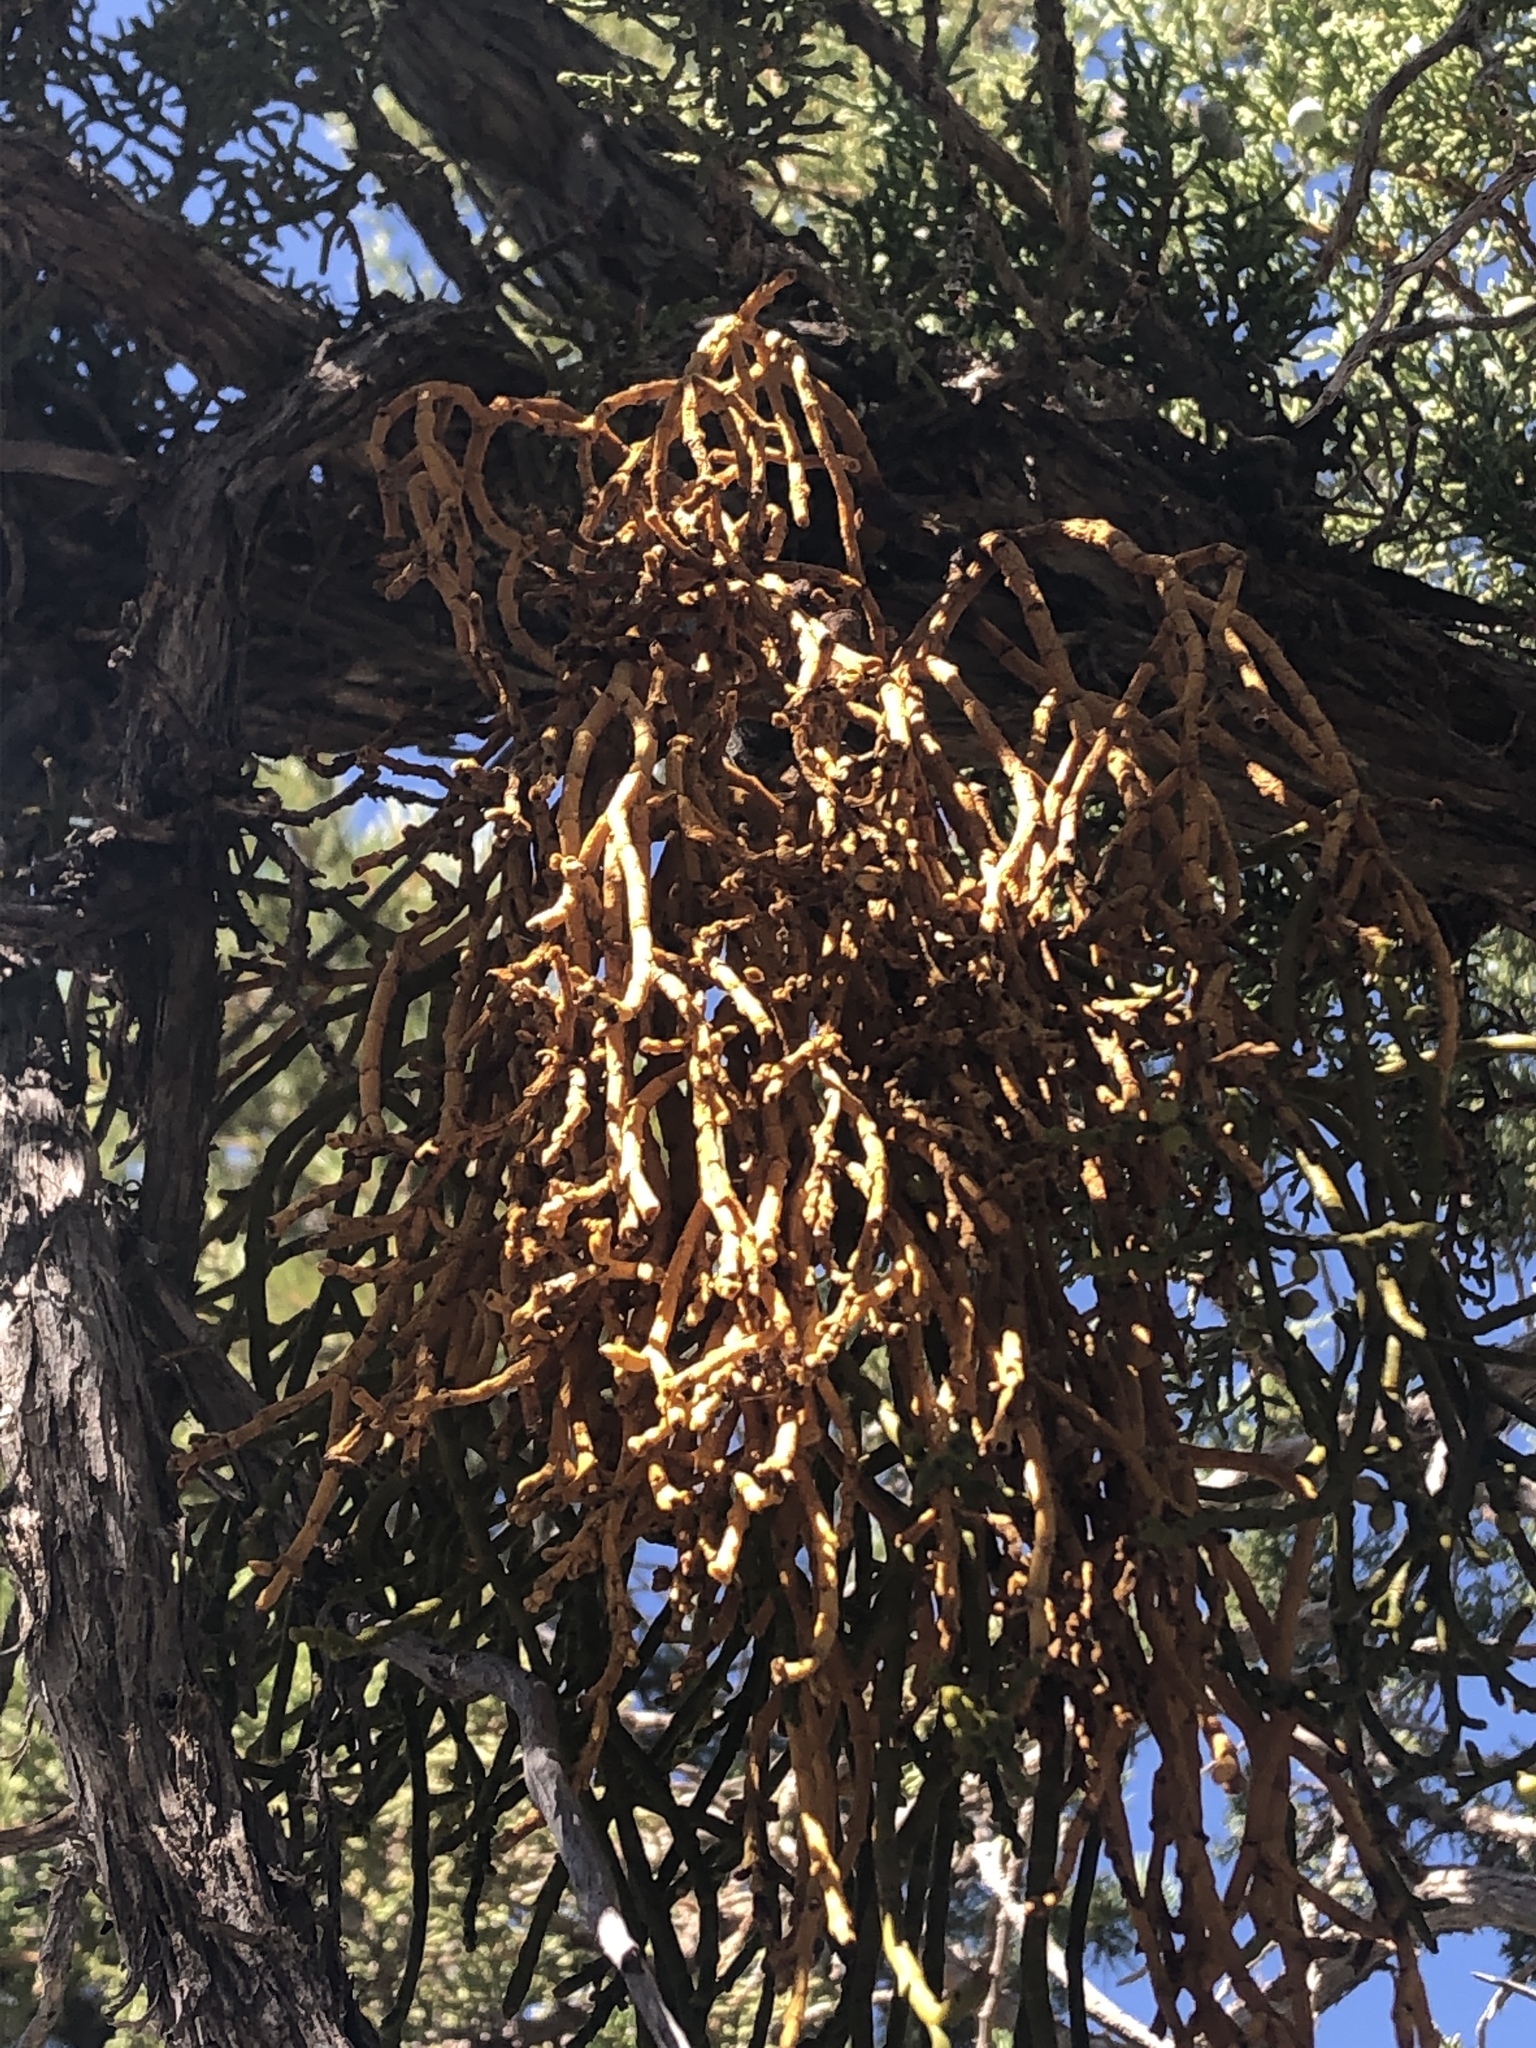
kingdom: Plantae
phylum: Tracheophyta
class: Magnoliopsida
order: Santalales
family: Viscaceae
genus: Phoradendron
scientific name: Phoradendron juniperinum
